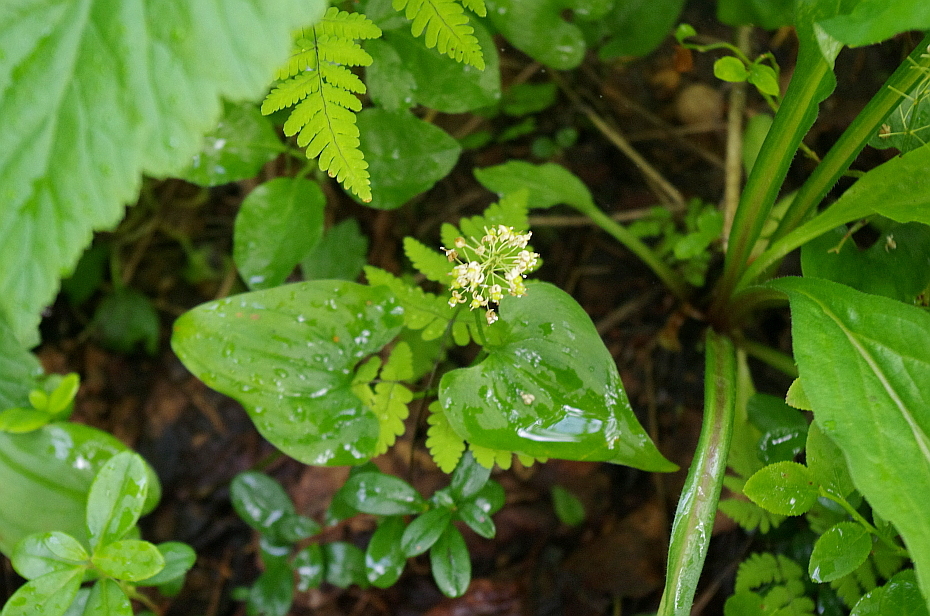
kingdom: Plantae
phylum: Tracheophyta
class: Liliopsida
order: Asparagales
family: Asparagaceae
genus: Maianthemum
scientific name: Maianthemum bifolium
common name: May lily
